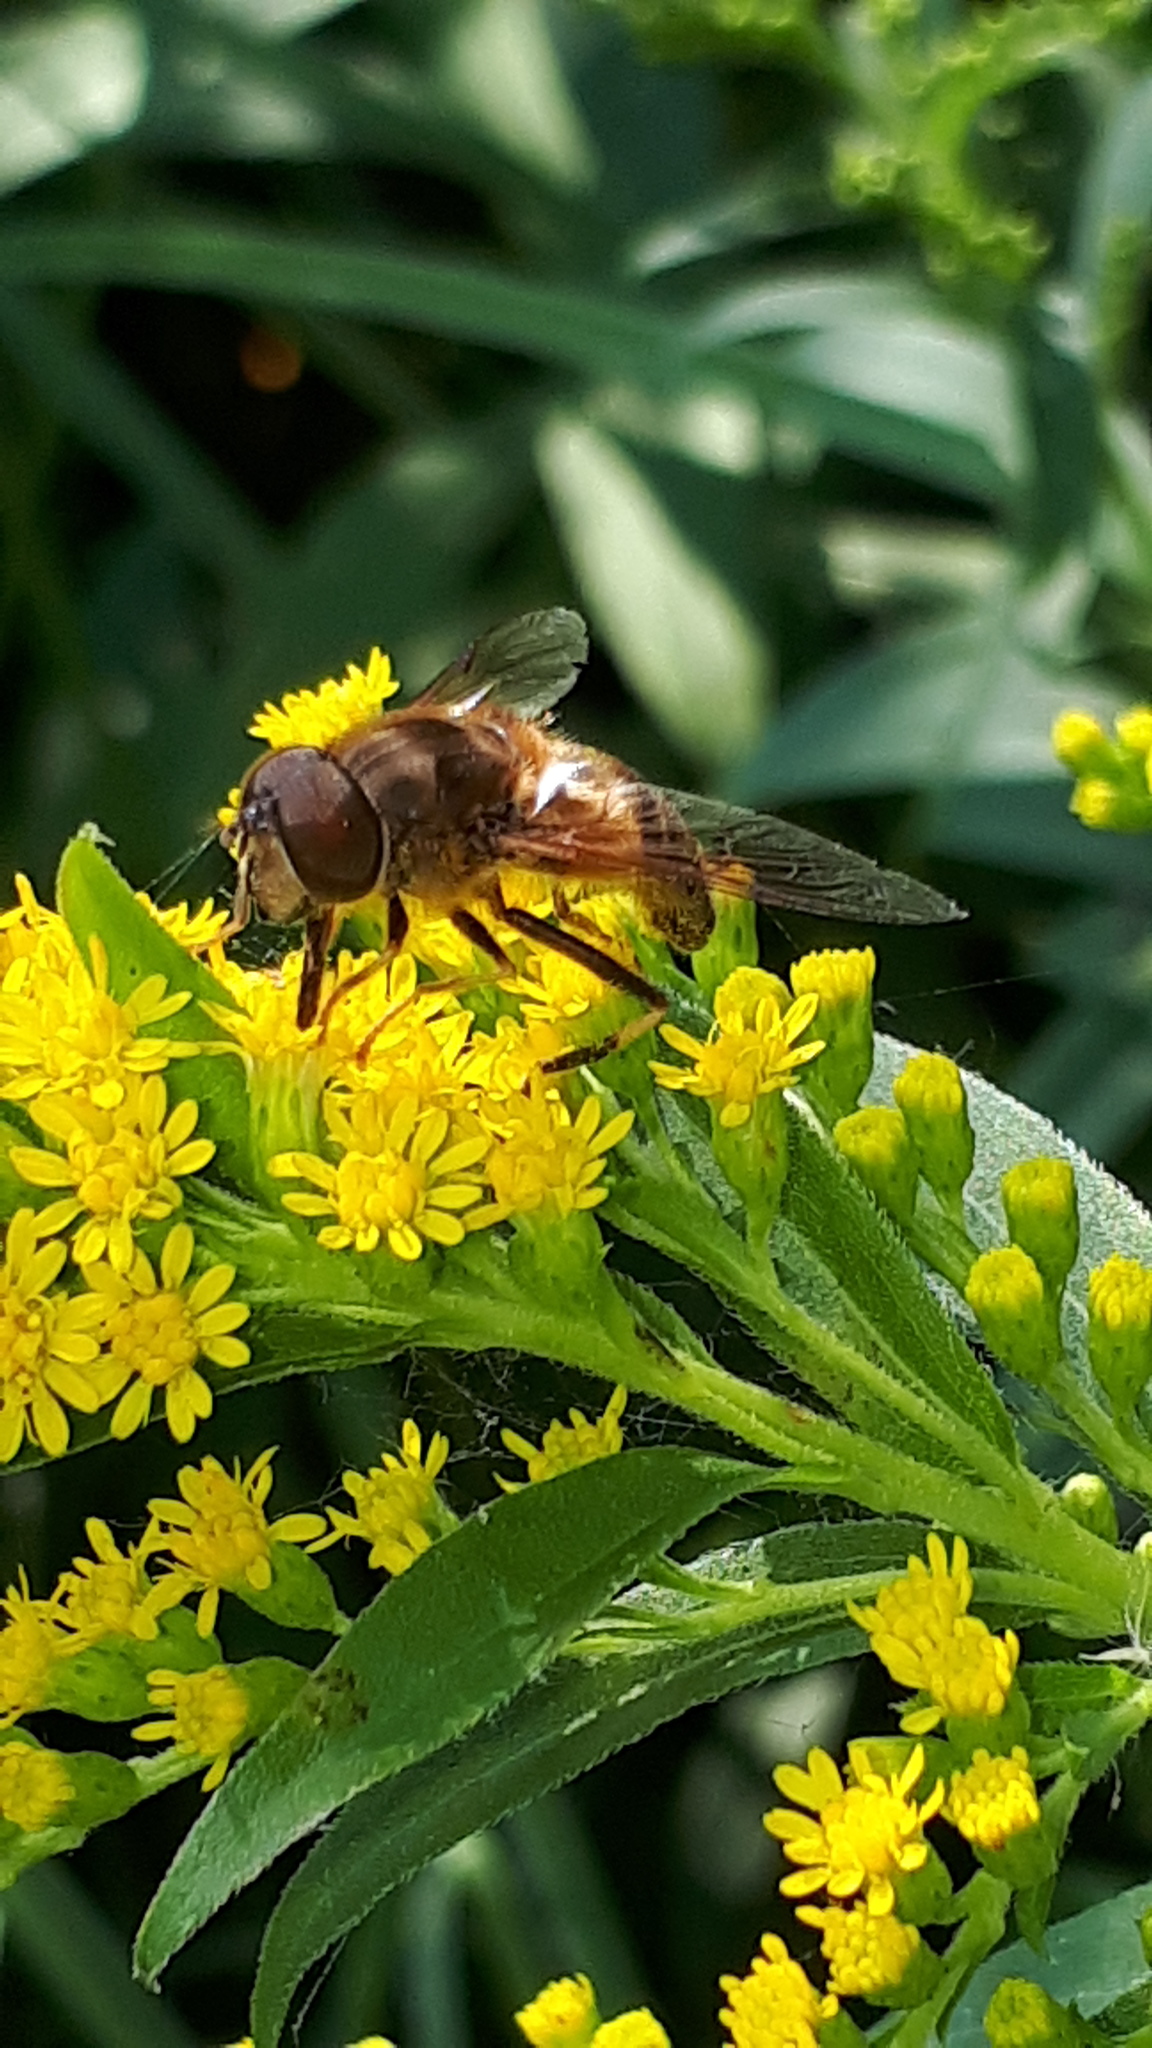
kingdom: Animalia
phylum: Arthropoda
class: Insecta
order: Diptera
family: Syrphidae
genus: Eristalis
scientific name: Eristalis pertinax
